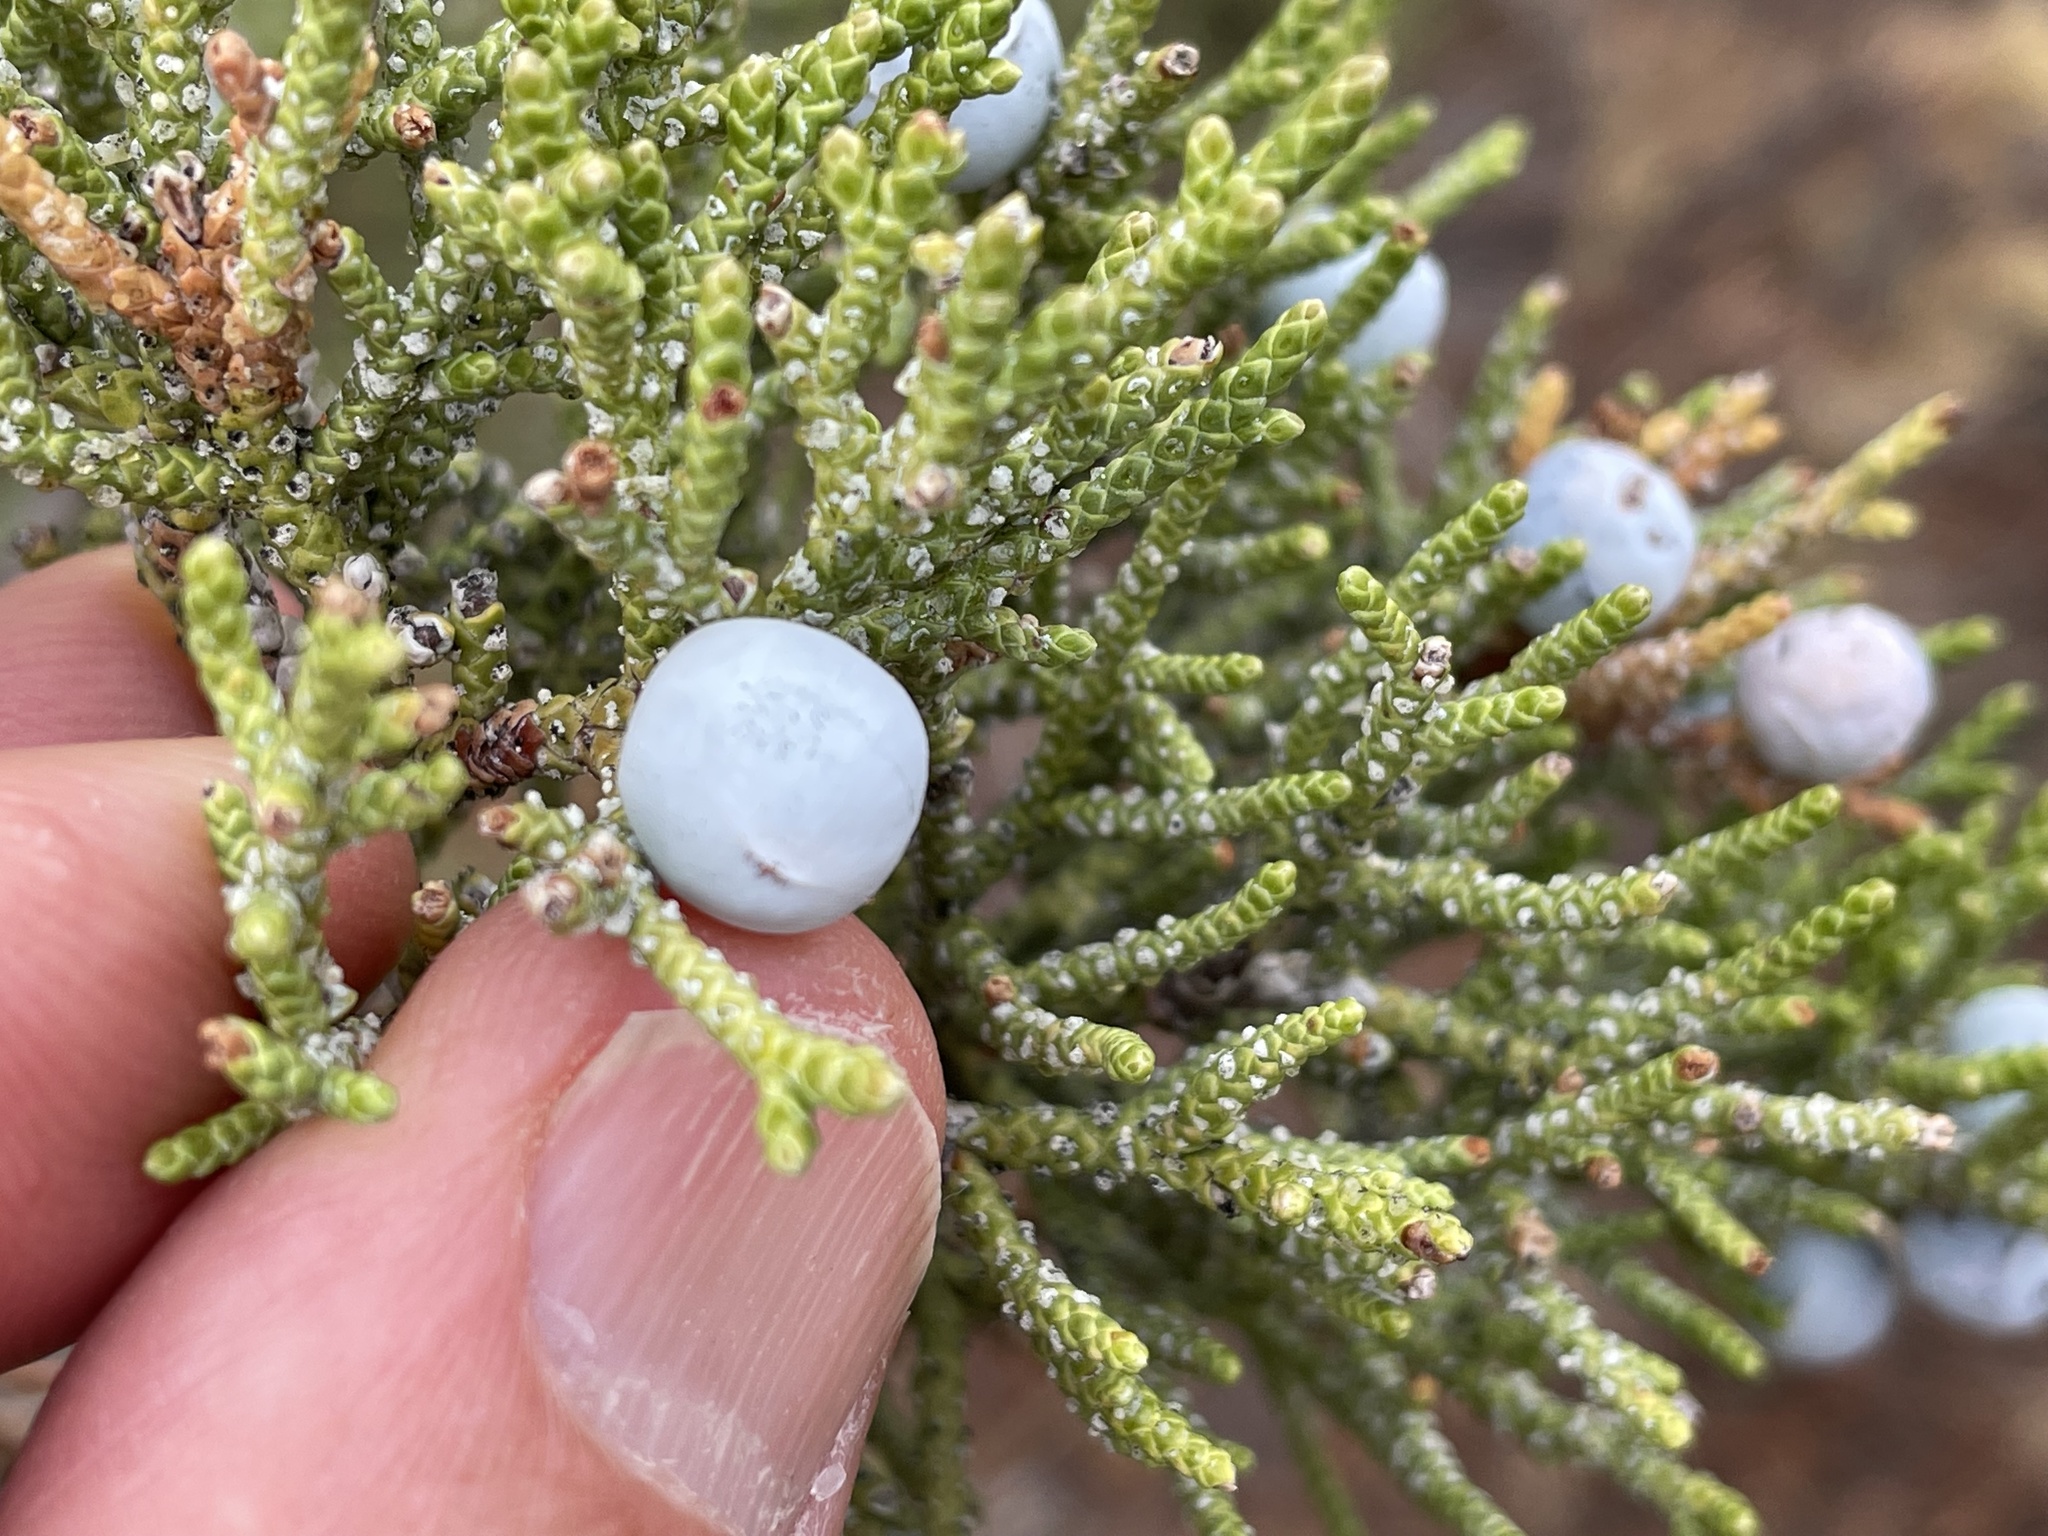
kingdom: Plantae
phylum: Tracheophyta
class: Pinopsida
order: Pinales
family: Cupressaceae
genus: Juniperus
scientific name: Juniperus occidentalis
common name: Western juniper
